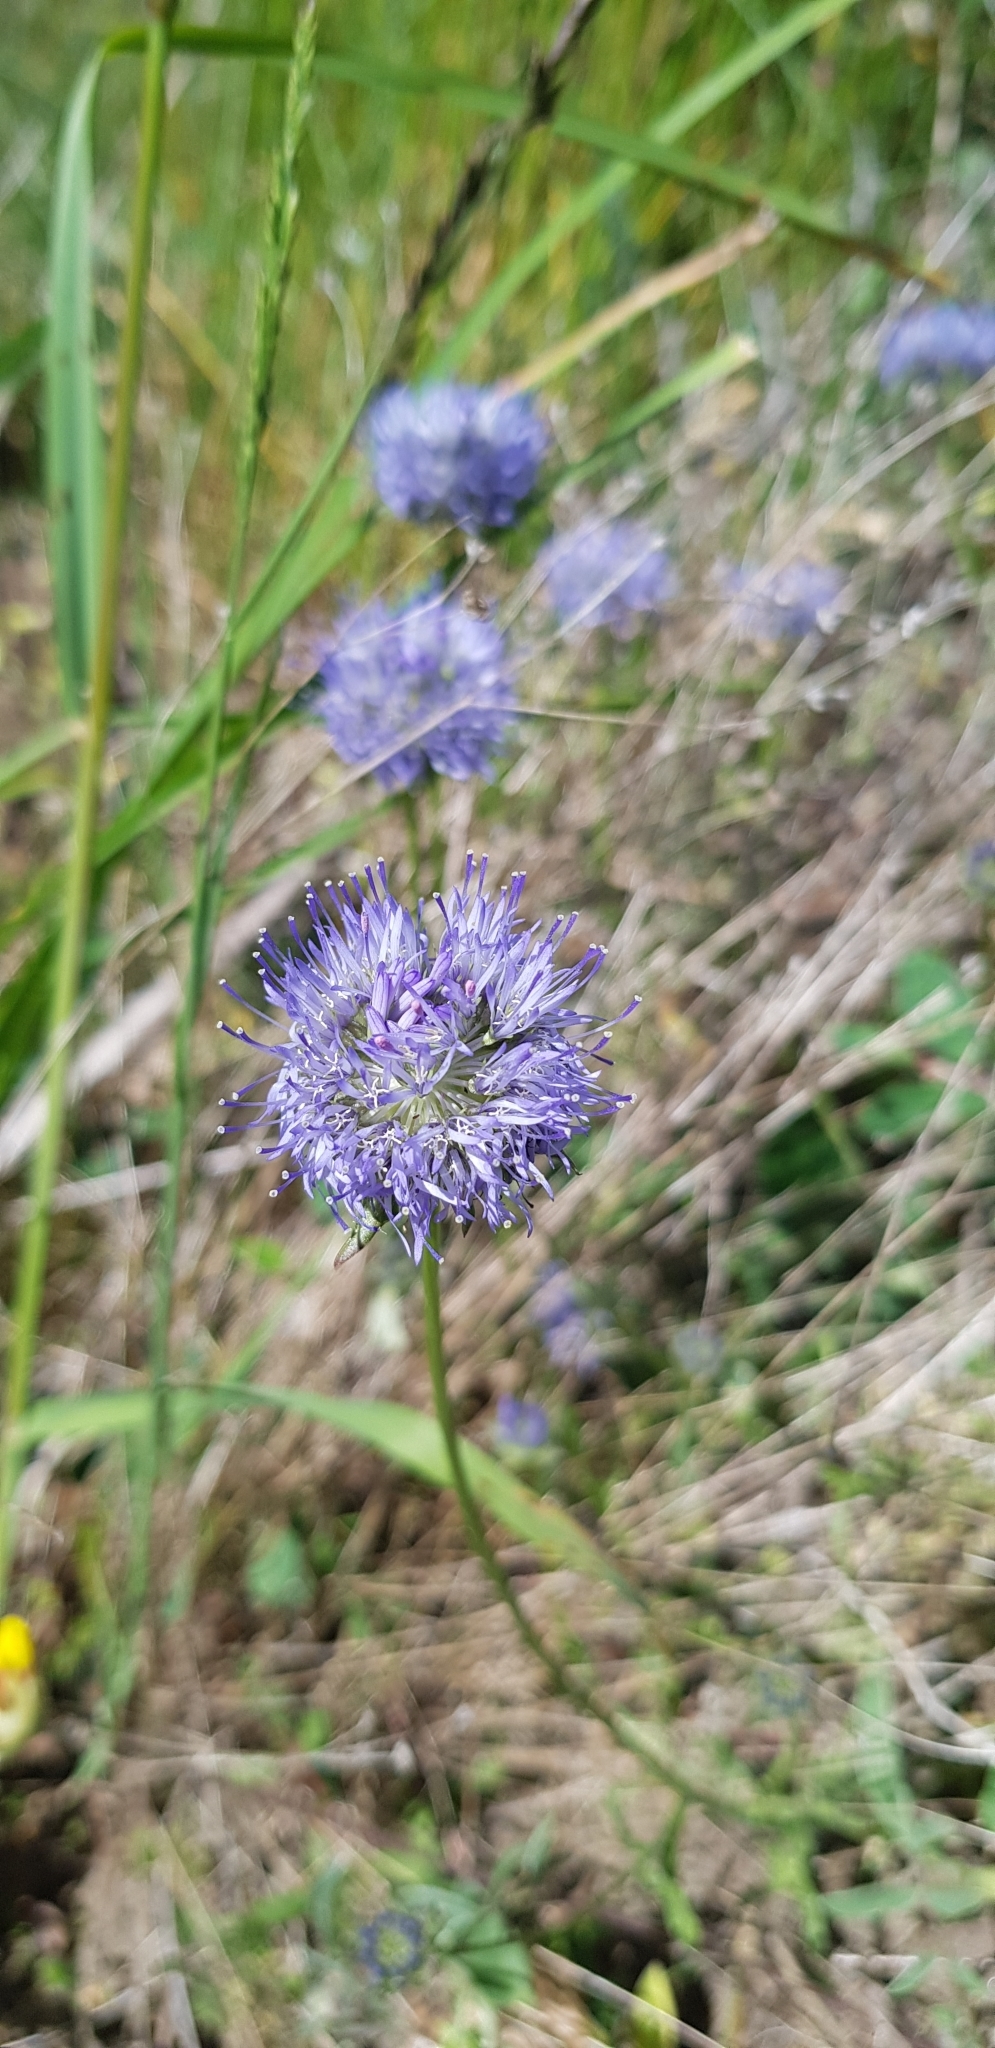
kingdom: Plantae
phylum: Tracheophyta
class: Magnoliopsida
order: Asterales
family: Campanulaceae
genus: Jasione
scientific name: Jasione montana
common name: Sheep's-bit
